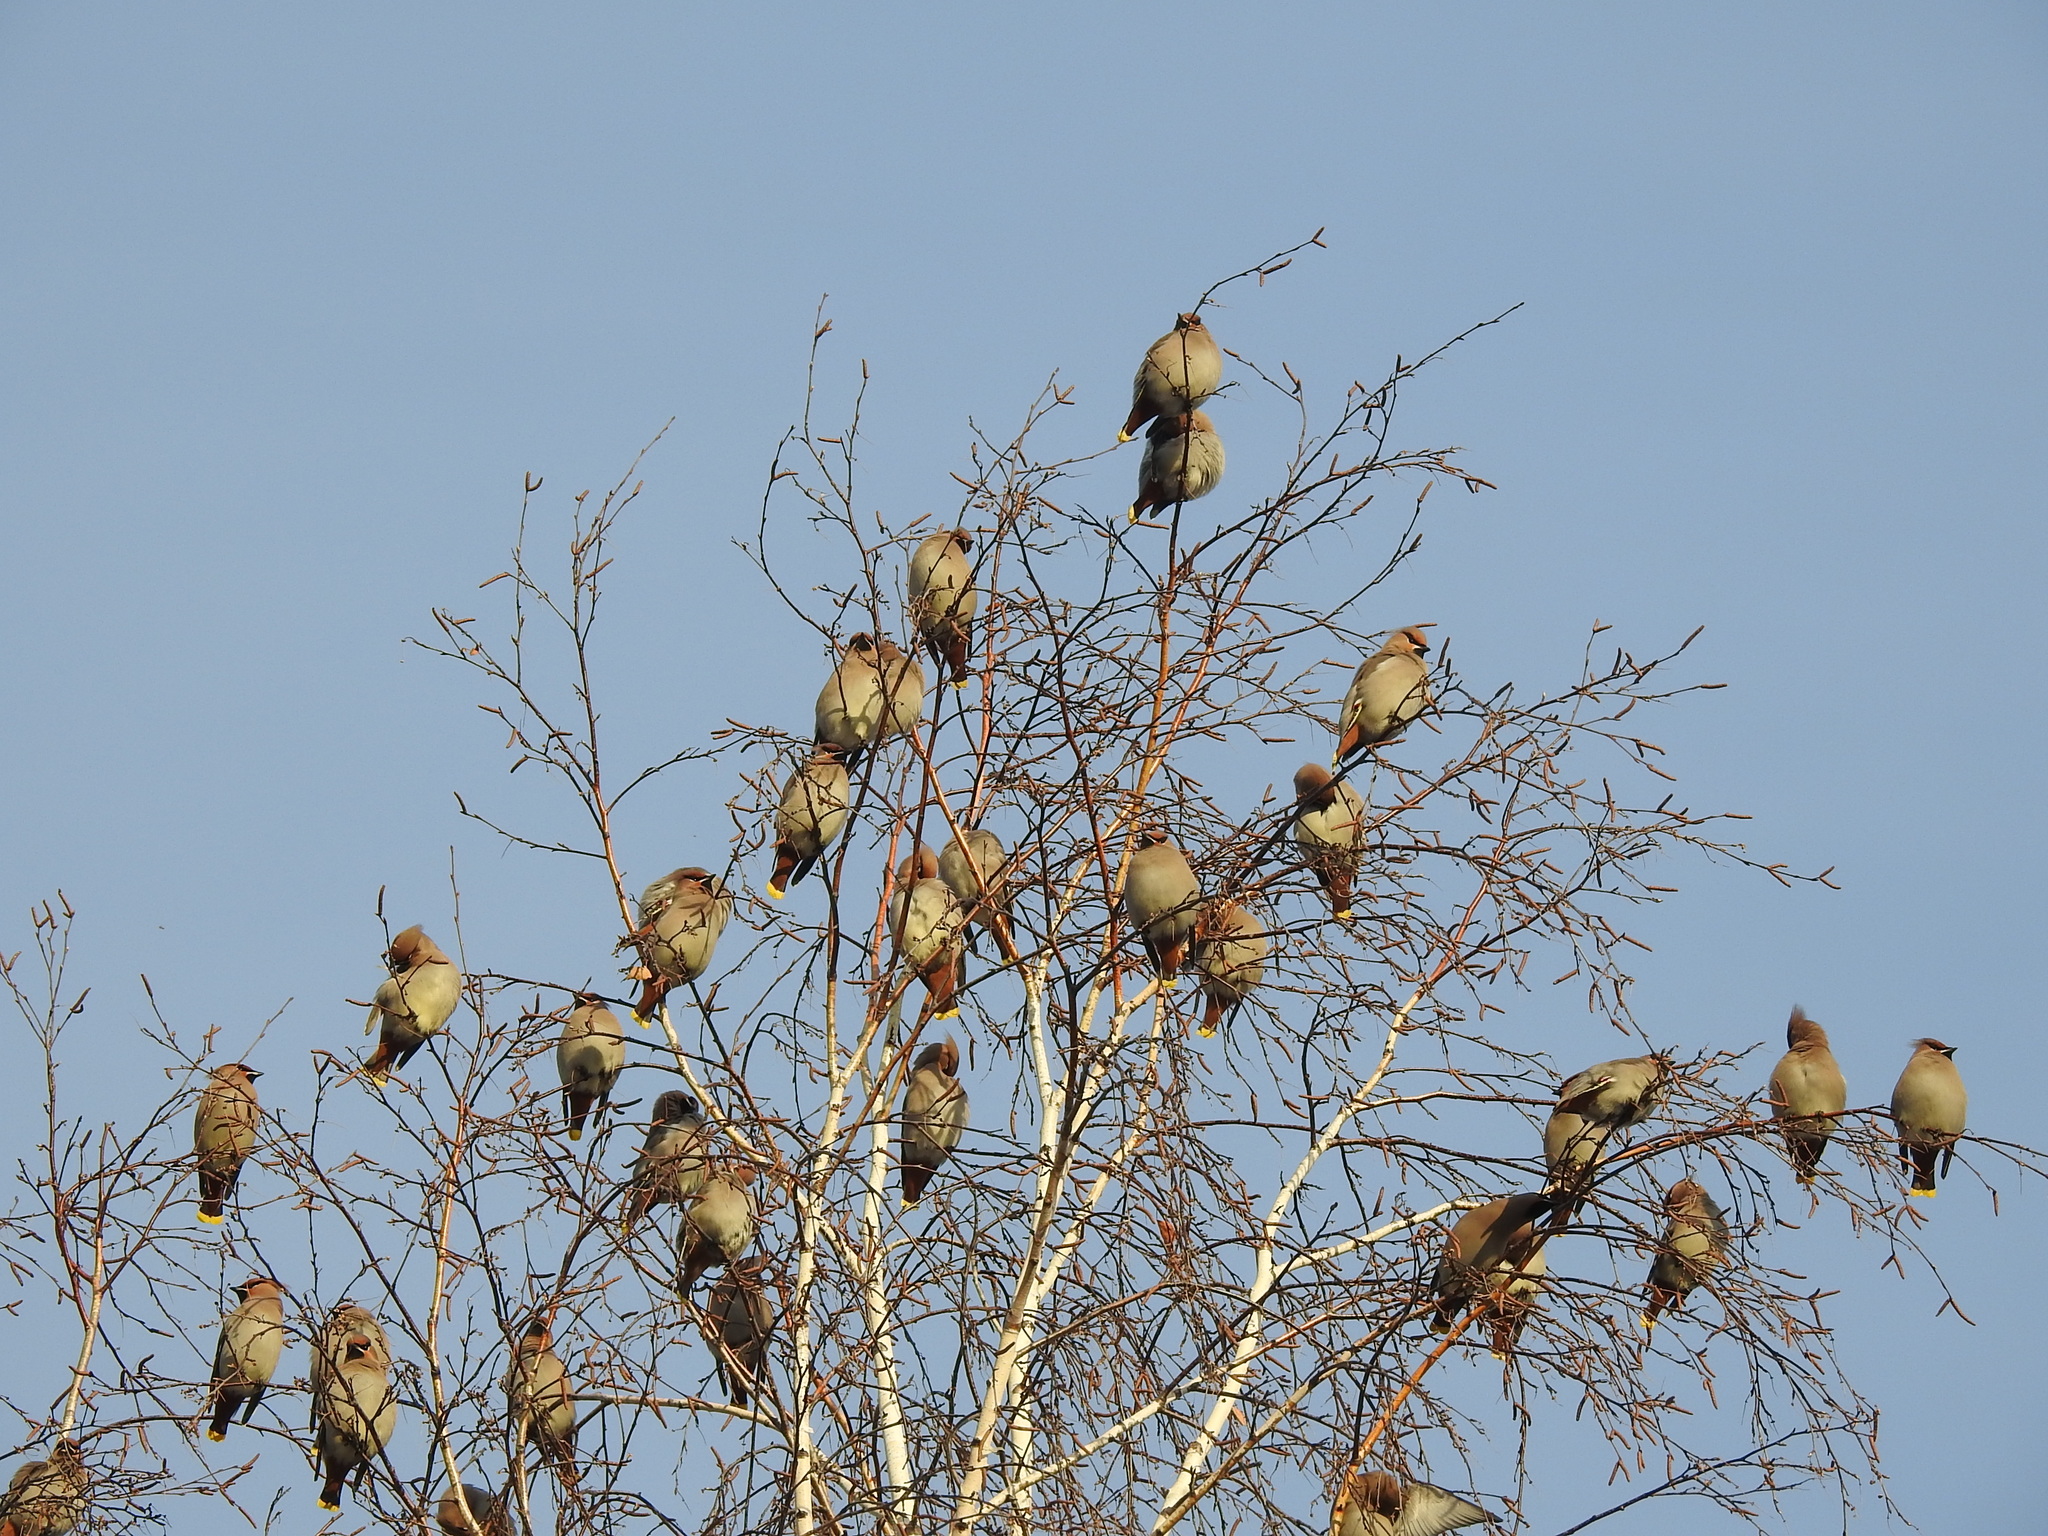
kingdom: Animalia
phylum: Chordata
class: Aves
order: Passeriformes
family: Bombycillidae
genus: Bombycilla
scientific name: Bombycilla garrulus
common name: Bohemian waxwing
